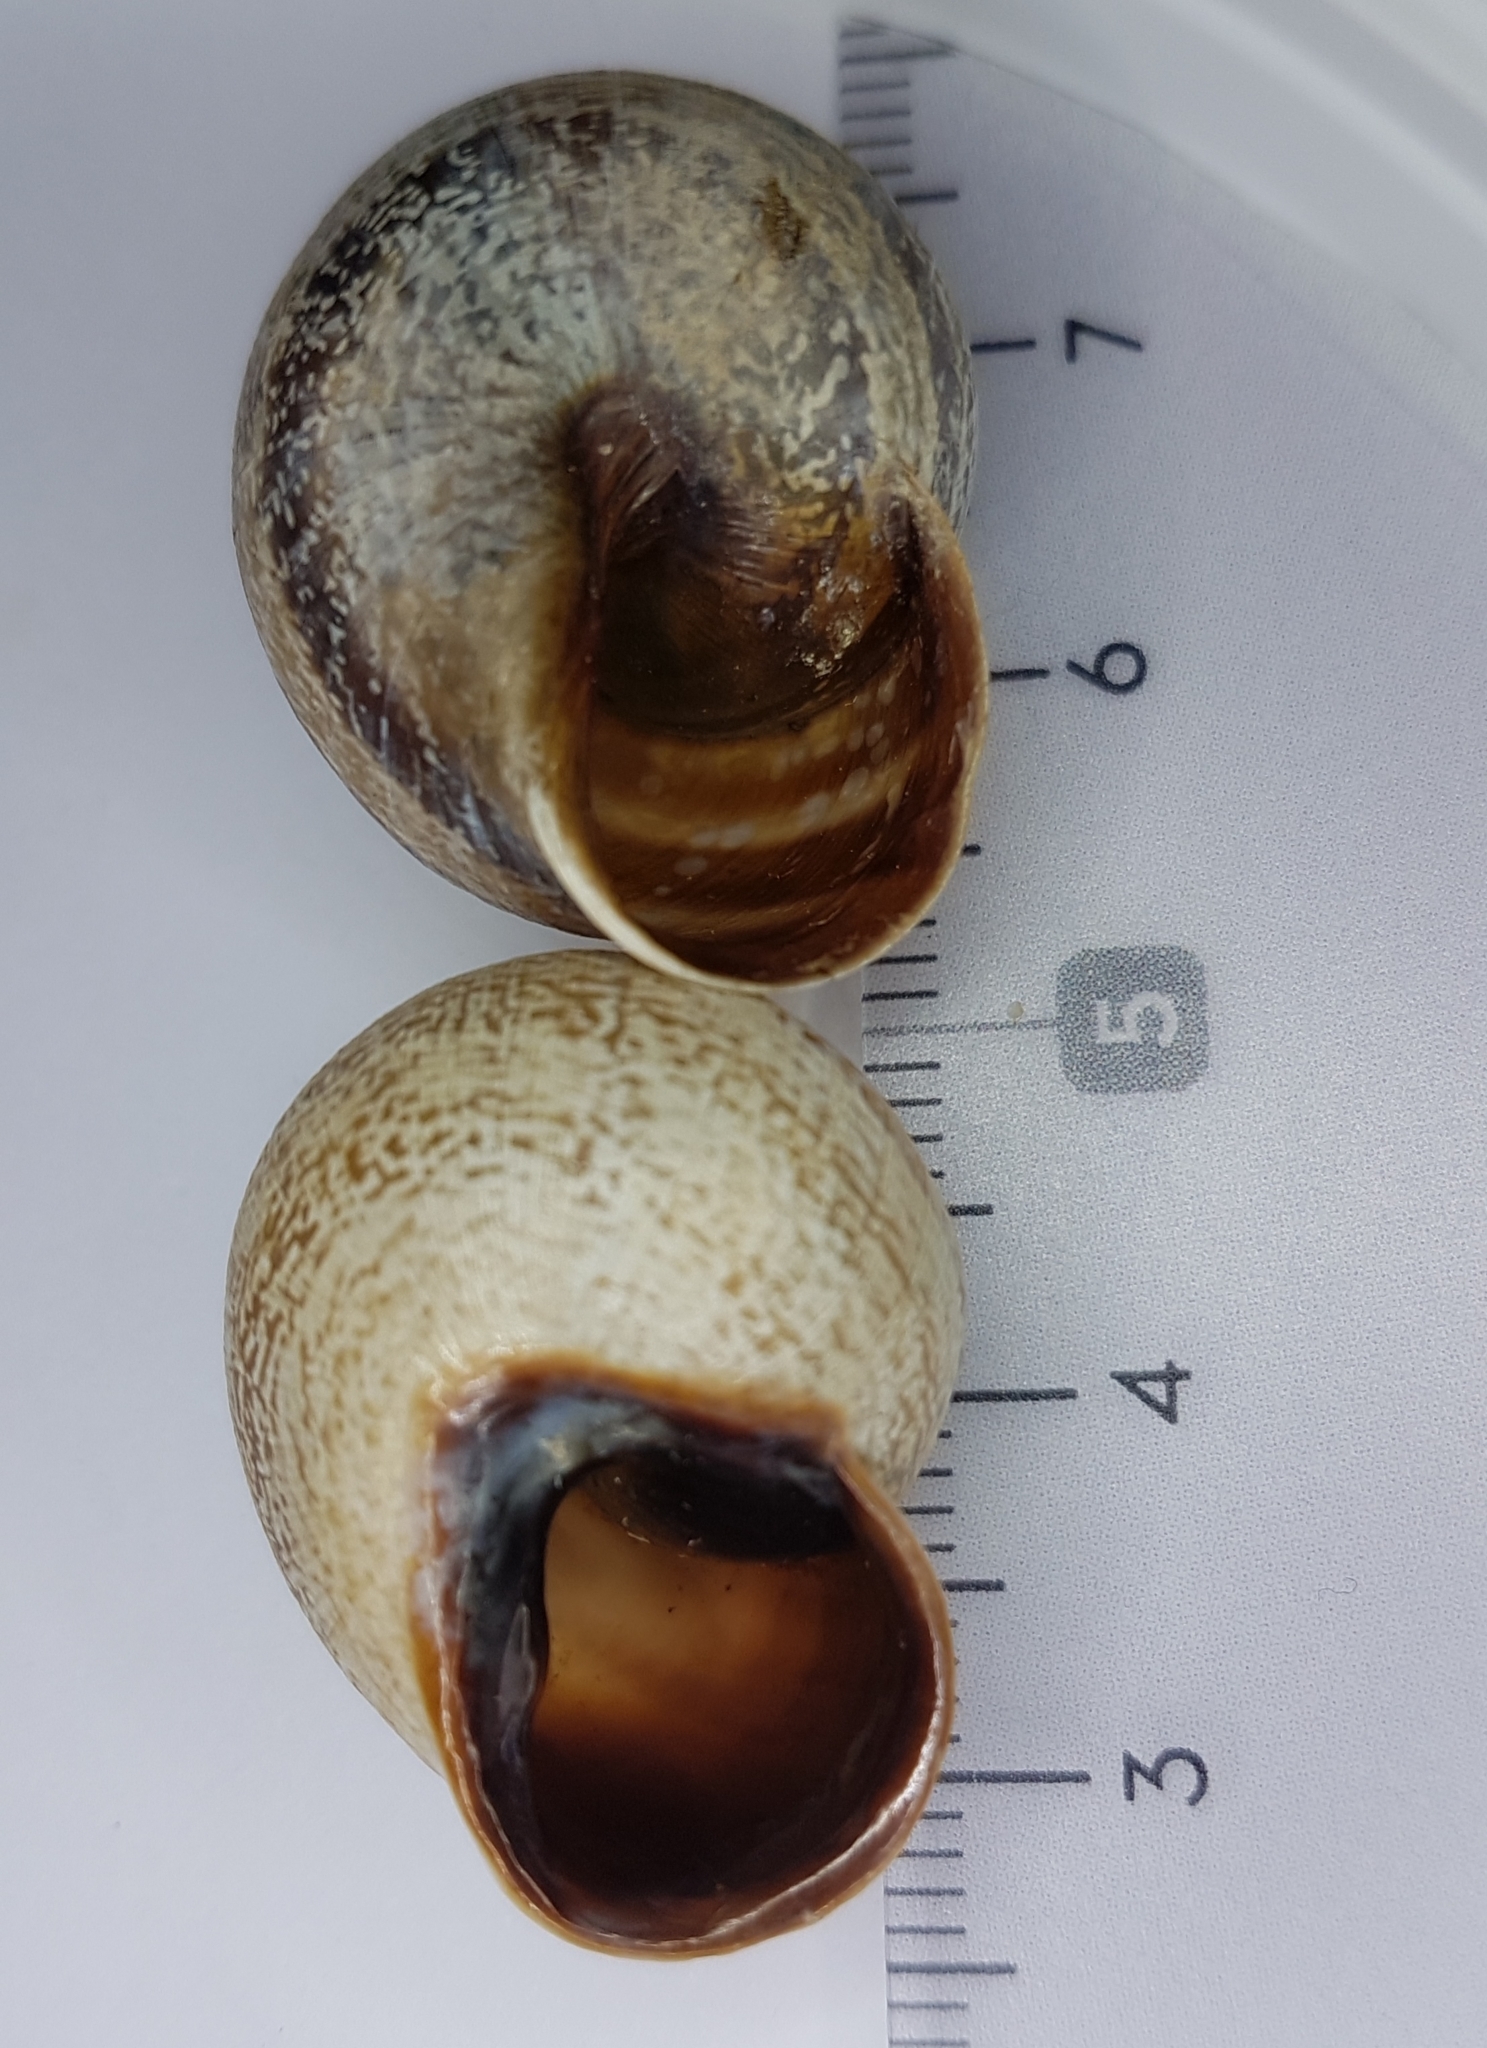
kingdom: Animalia
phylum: Mollusca
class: Gastropoda
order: Stylommatophora
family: Helicidae
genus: Otala
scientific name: Otala lactea
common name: Milk snail
